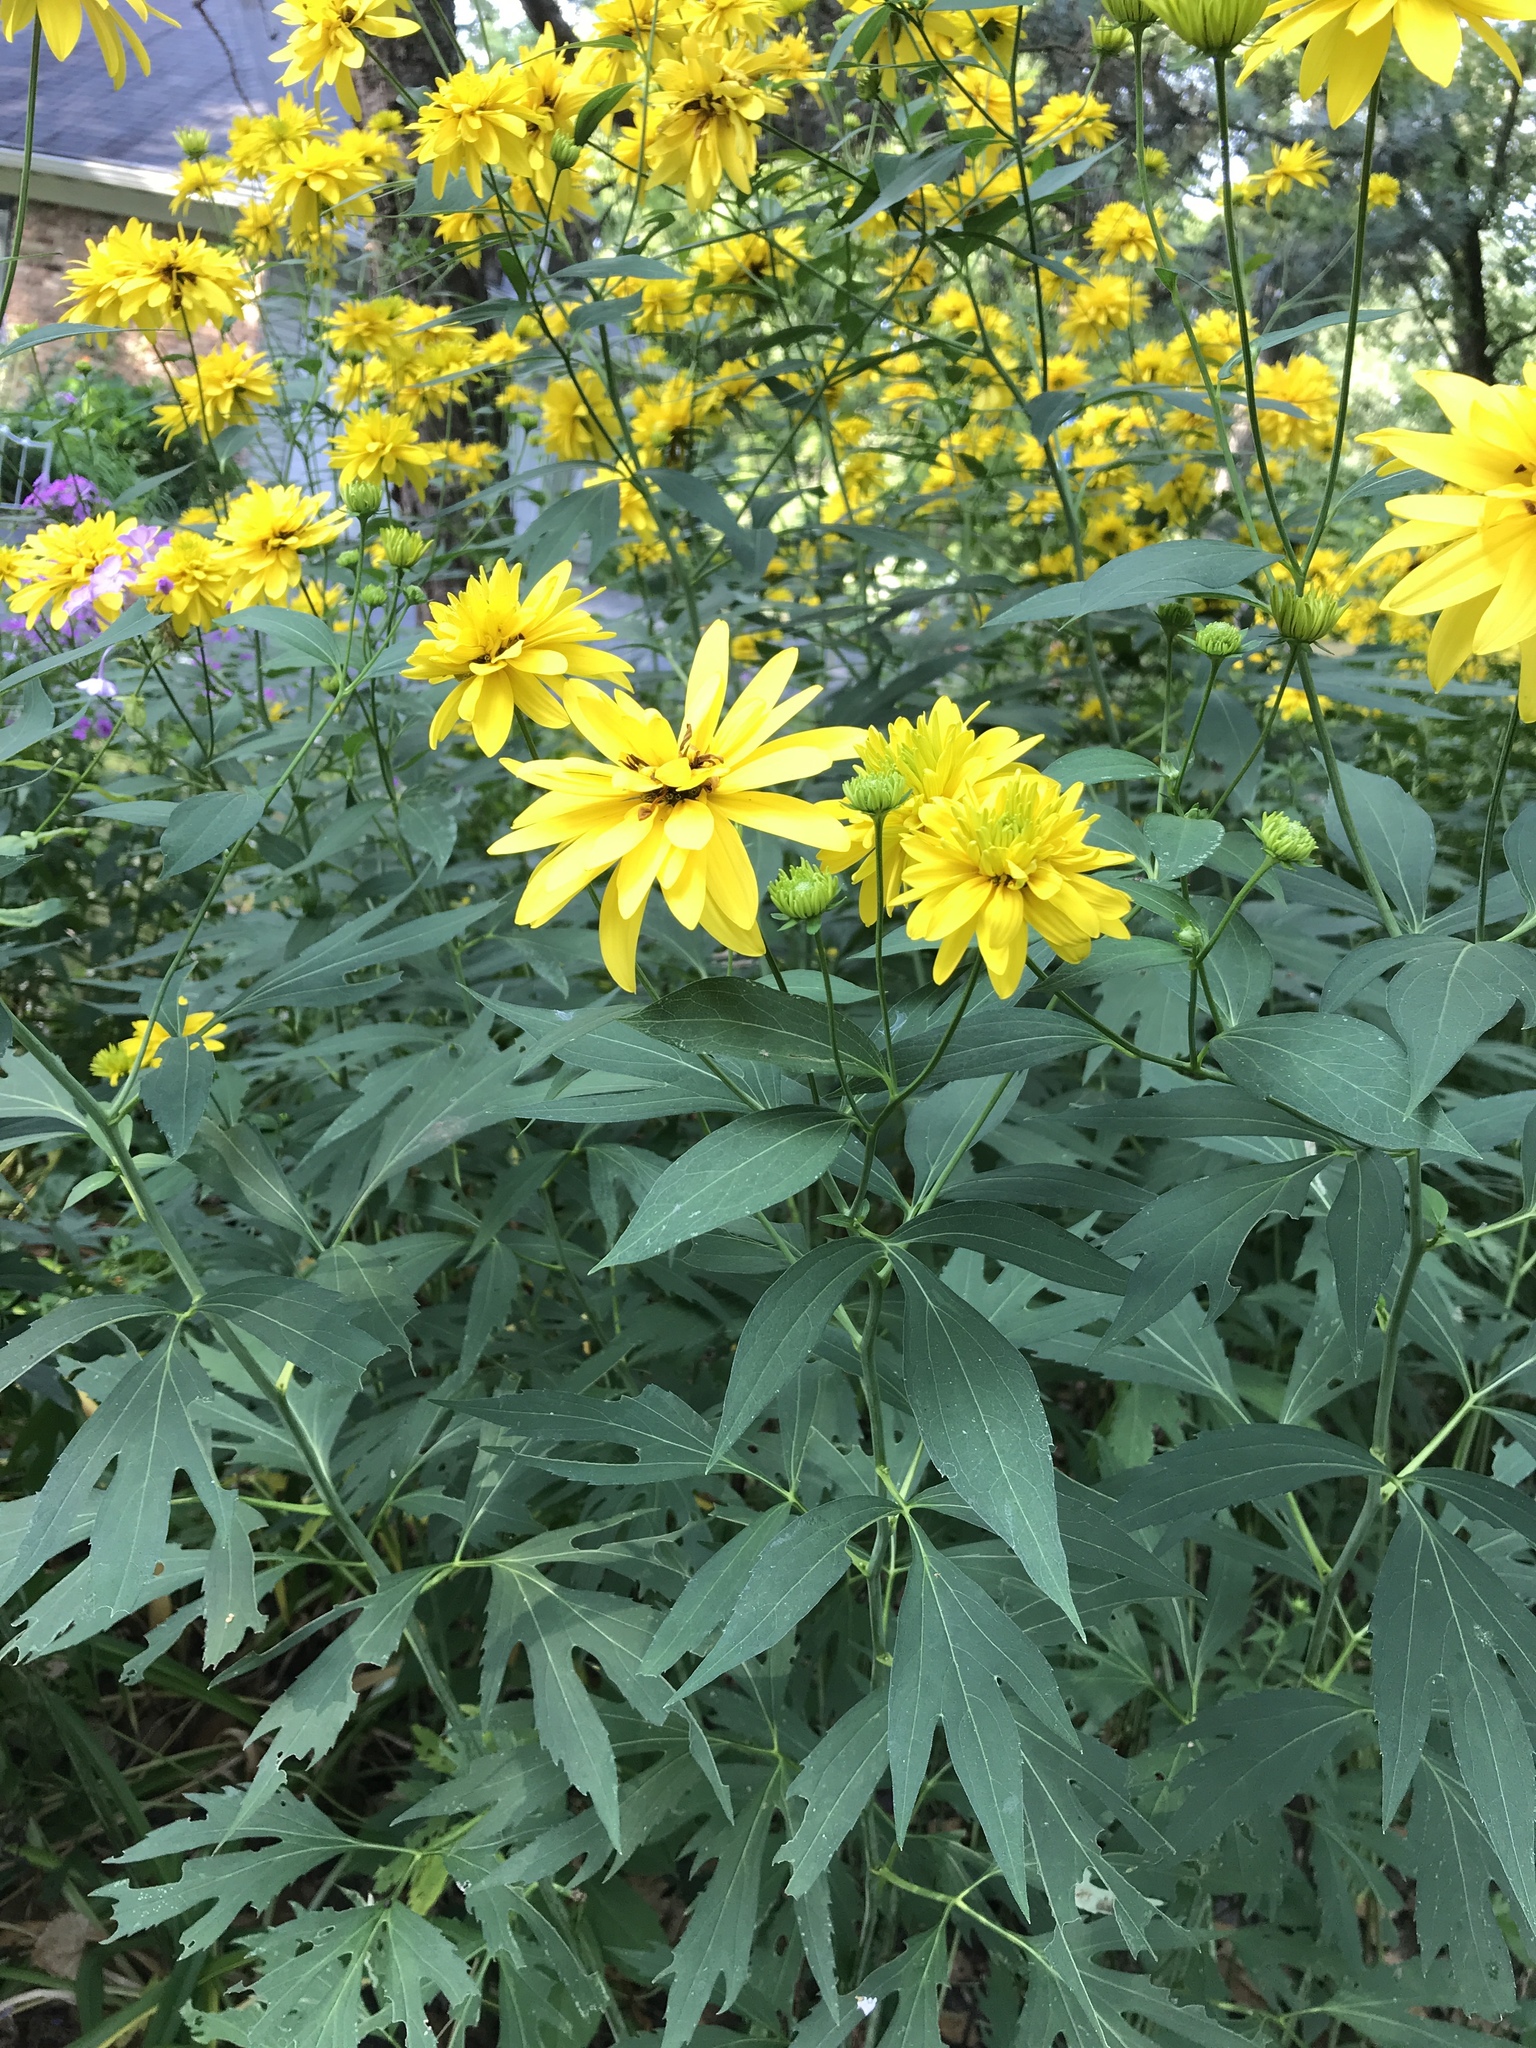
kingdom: Plantae
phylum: Tracheophyta
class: Magnoliopsida
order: Asterales
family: Asteraceae
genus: Rudbeckia
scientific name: Rudbeckia laciniata
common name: Coneflower
